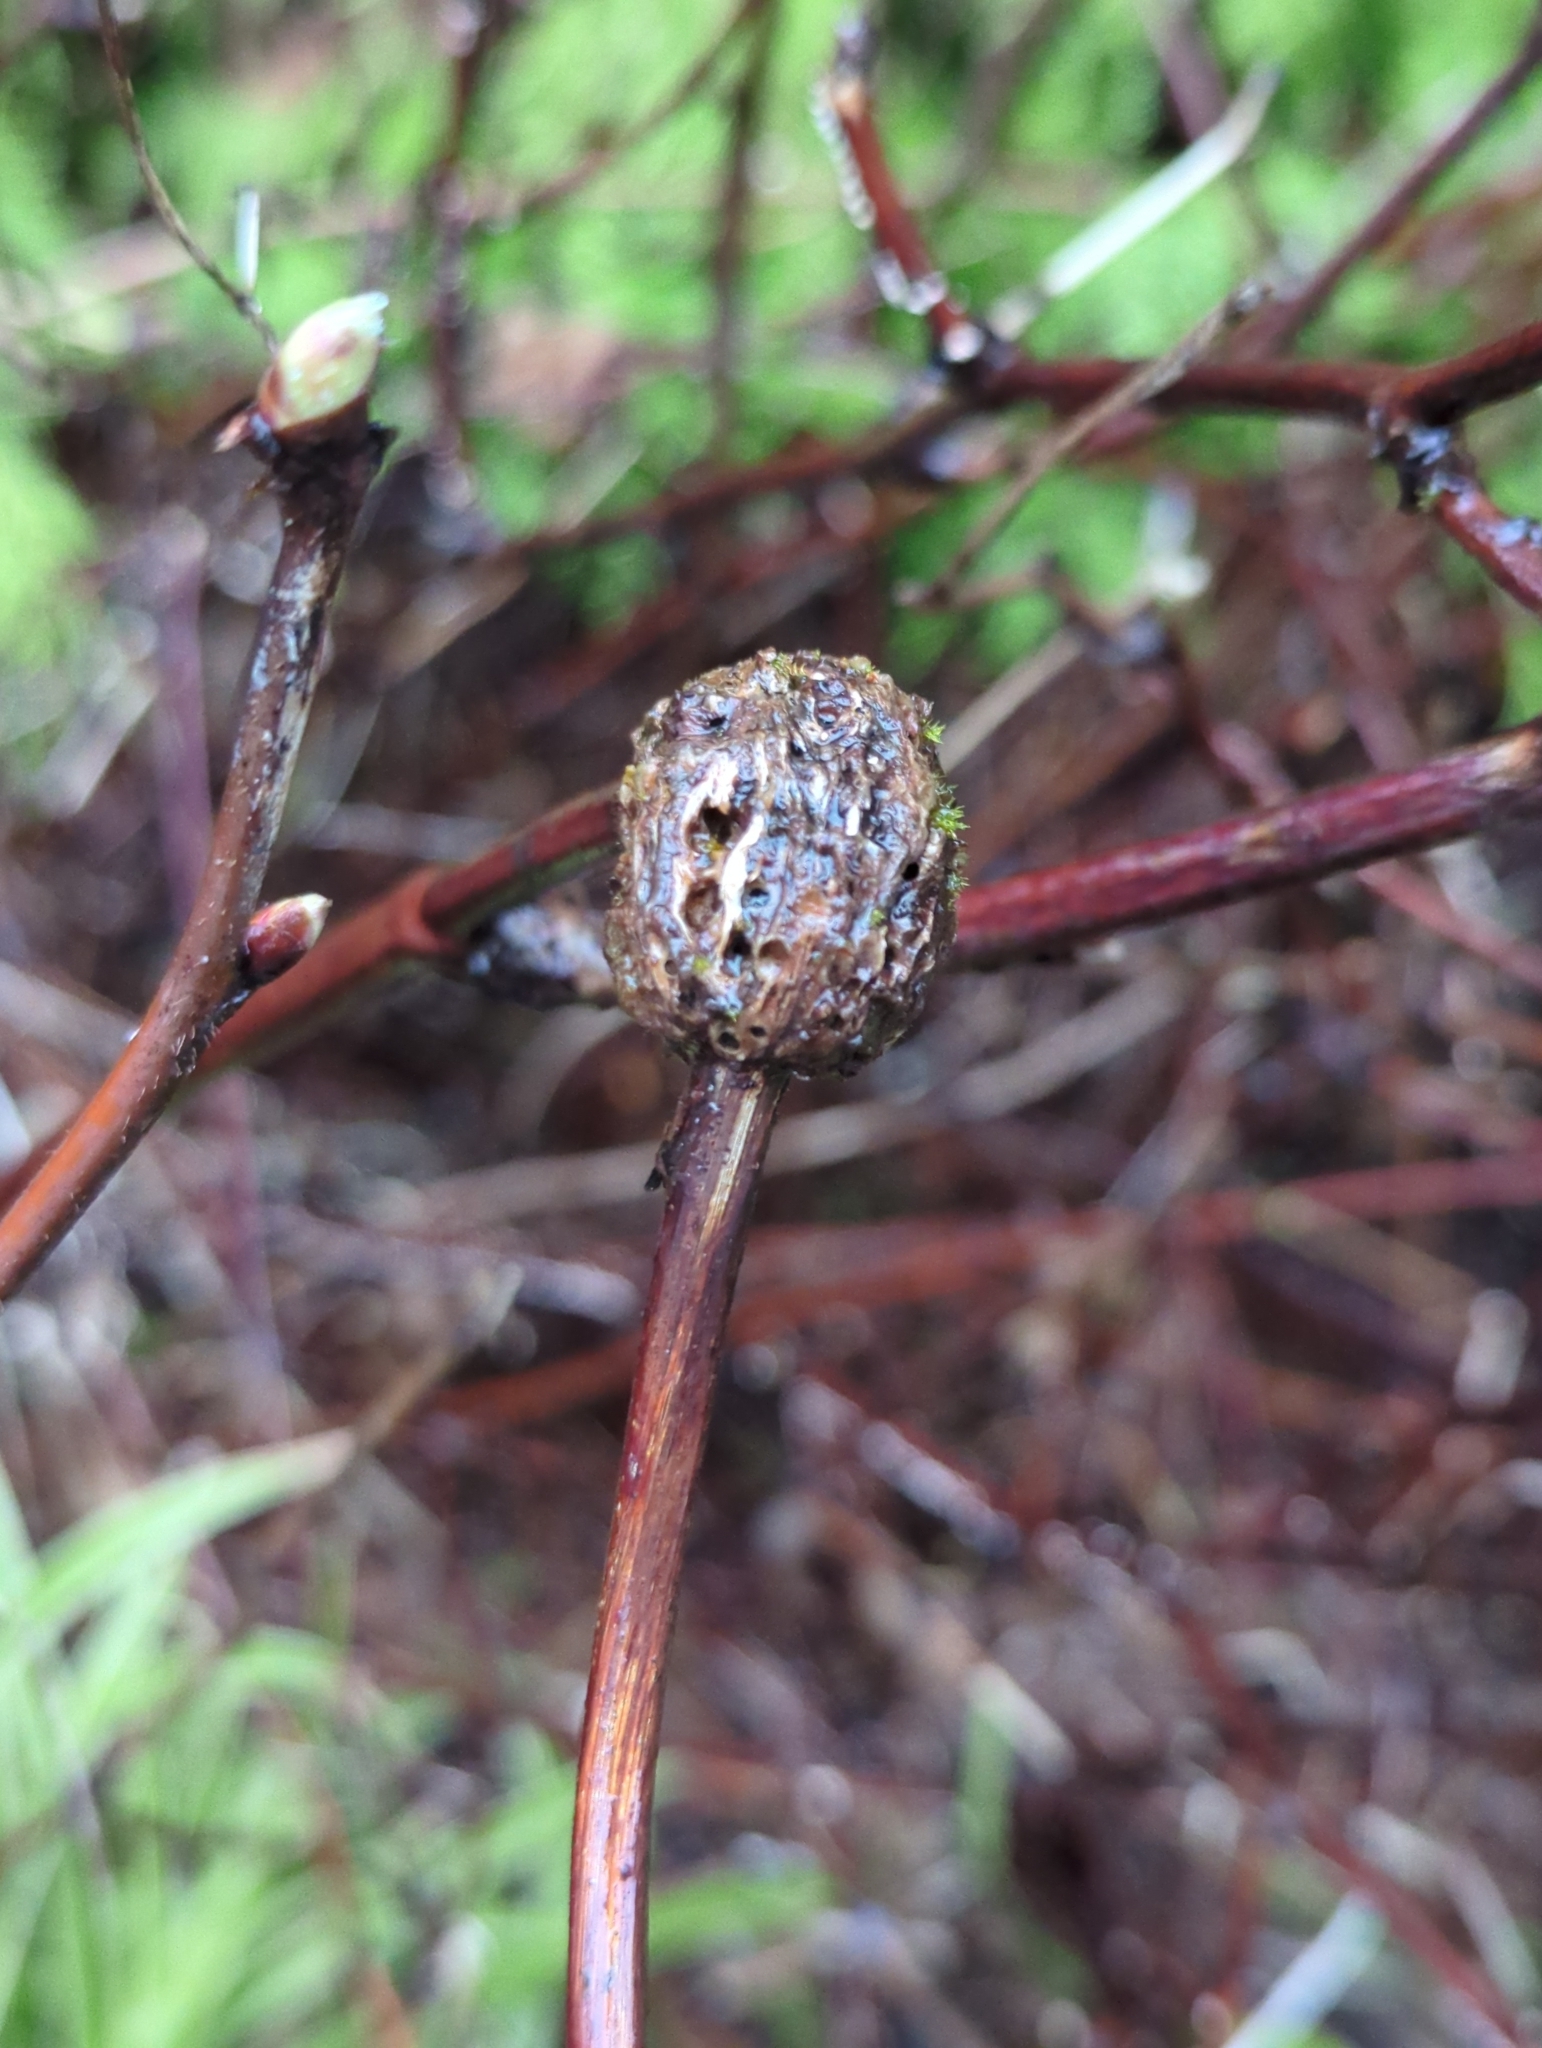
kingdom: Animalia
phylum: Arthropoda
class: Insecta
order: Hymenoptera
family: Cynipidae
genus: Diastrophus
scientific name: Diastrophus
